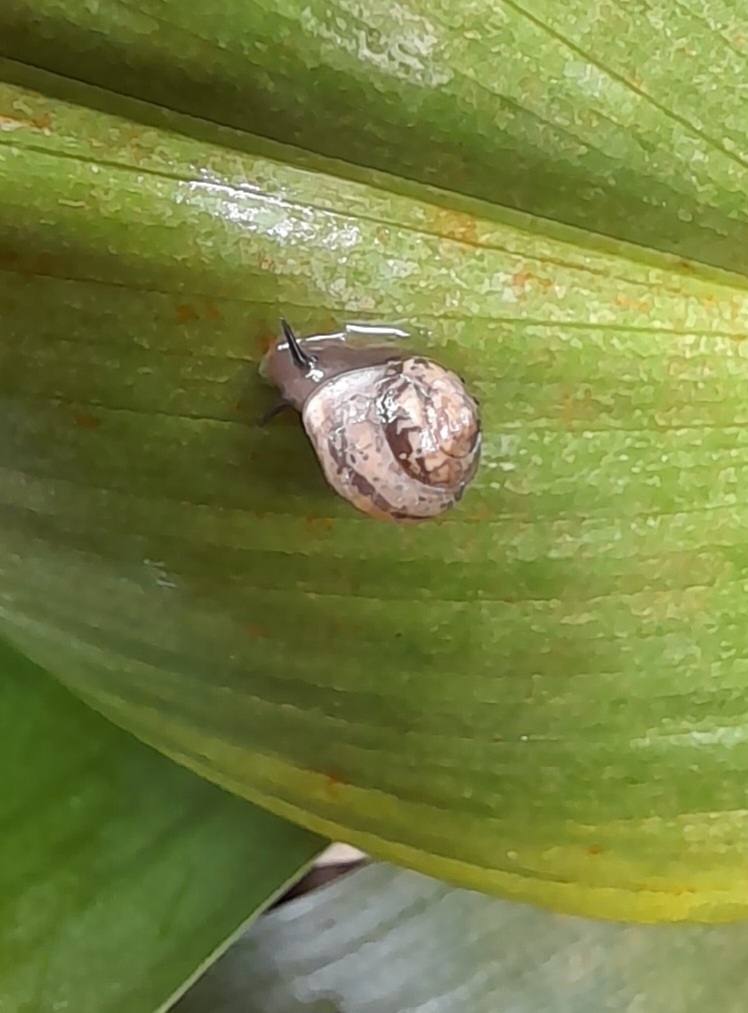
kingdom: Animalia
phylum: Mollusca
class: Gastropoda
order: Cycloneritida
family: Helicinidae
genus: Helicina
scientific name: Helicina orbiculata
